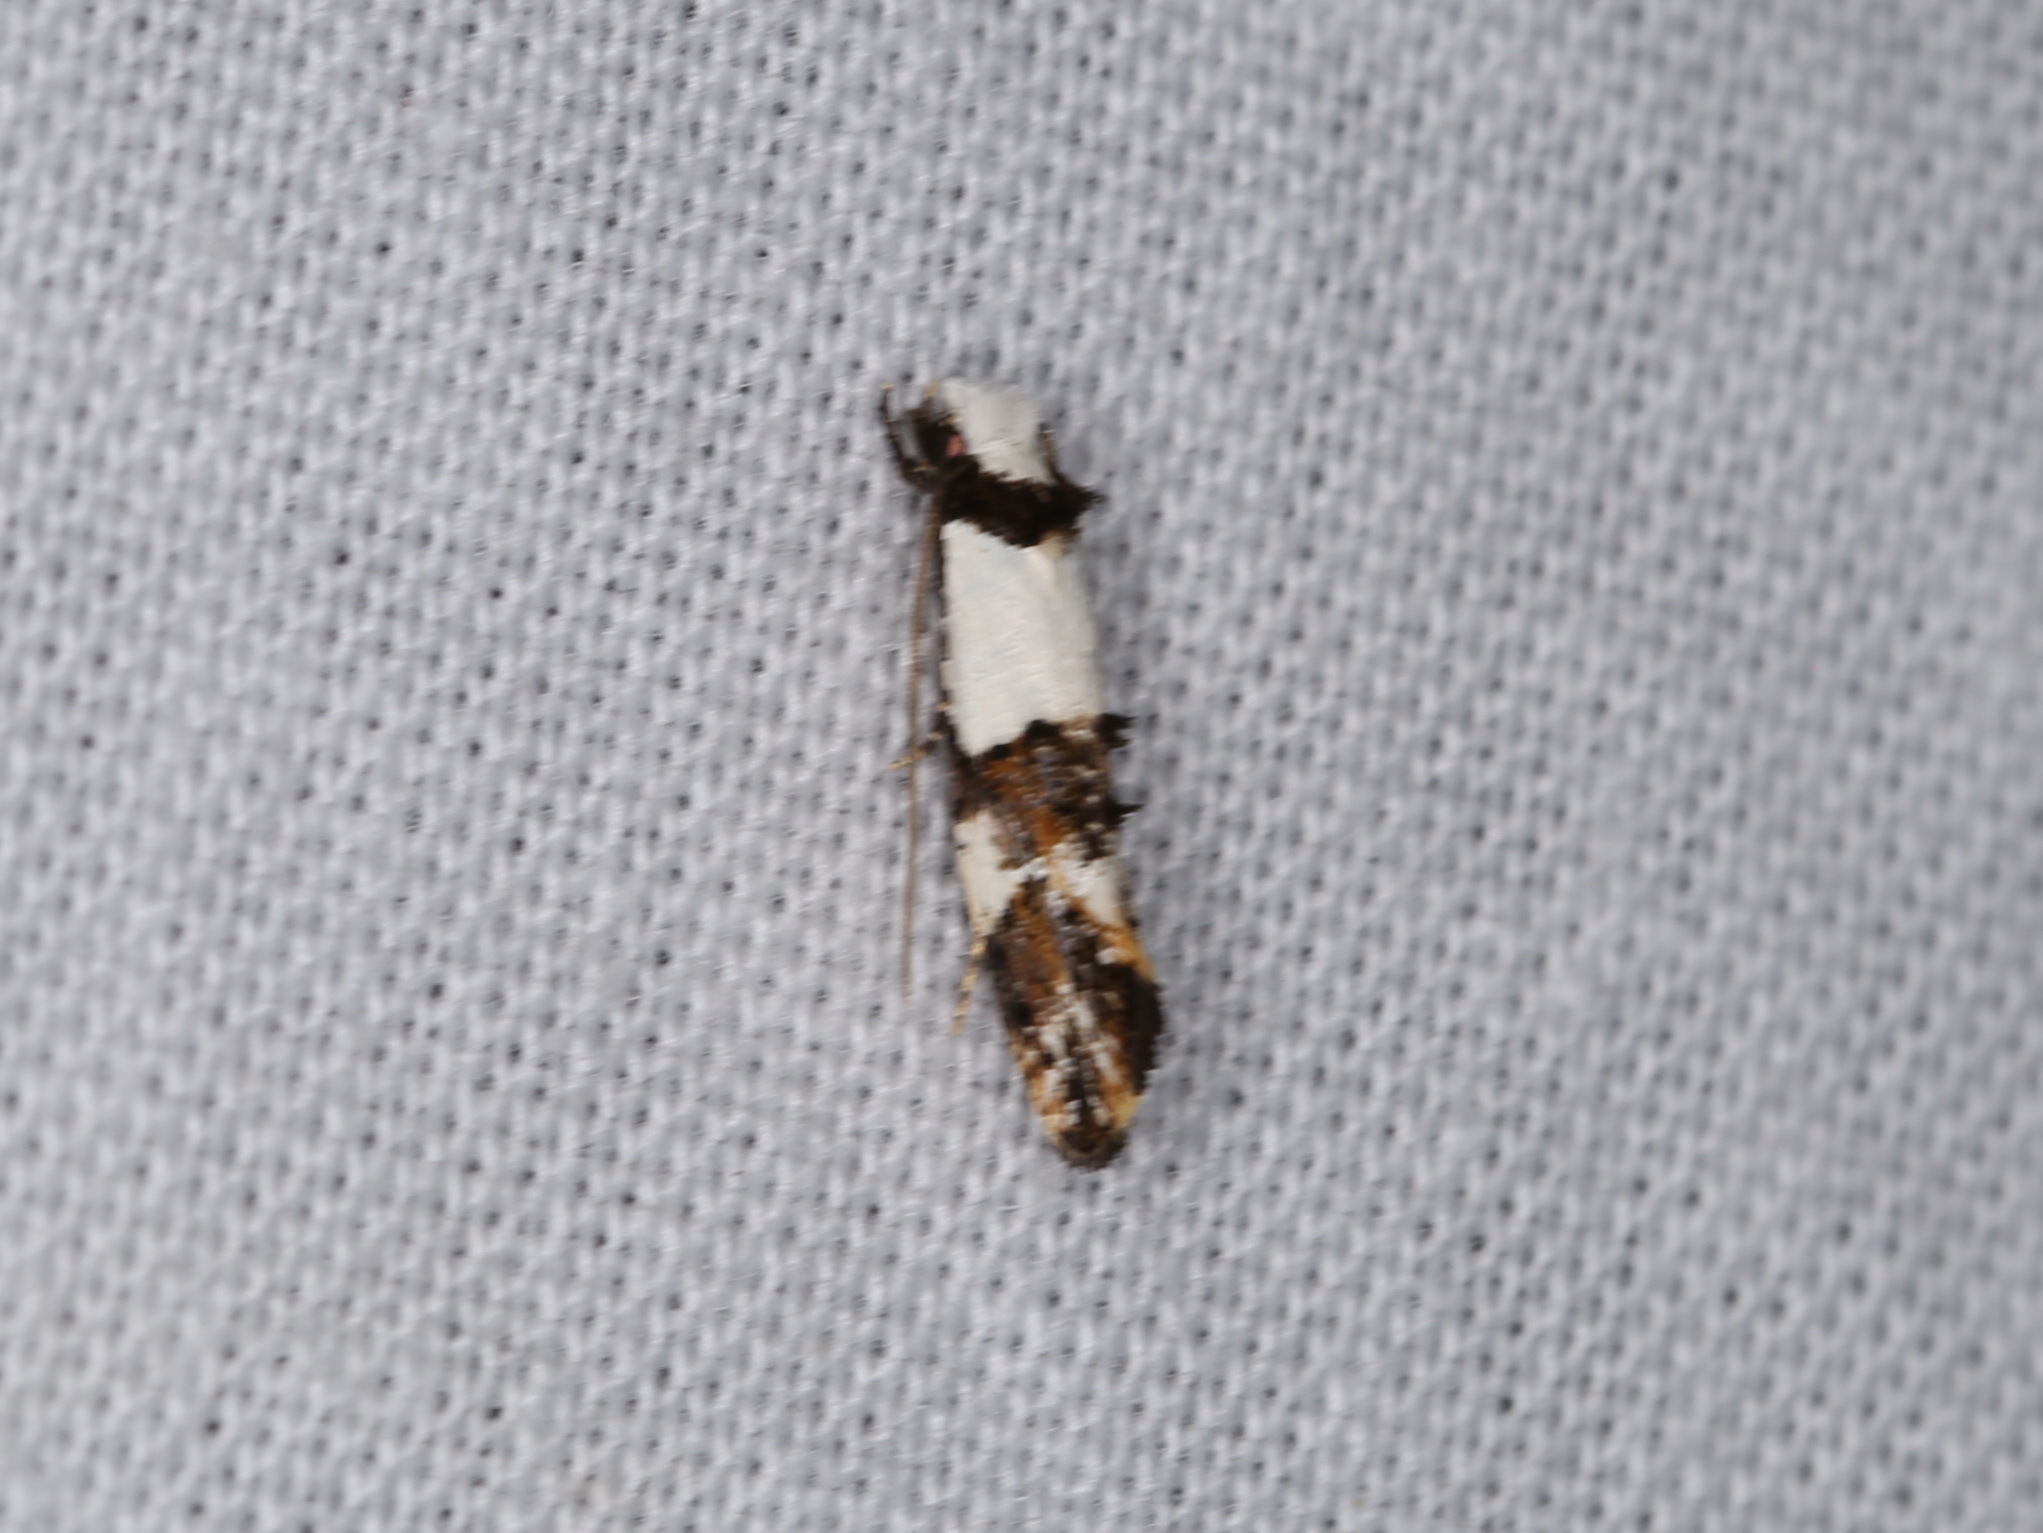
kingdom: Animalia
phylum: Arthropoda
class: Insecta
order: Lepidoptera
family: Tineidae
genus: Monopis
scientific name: Monopis meliorella
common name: Blotched monopis moth
